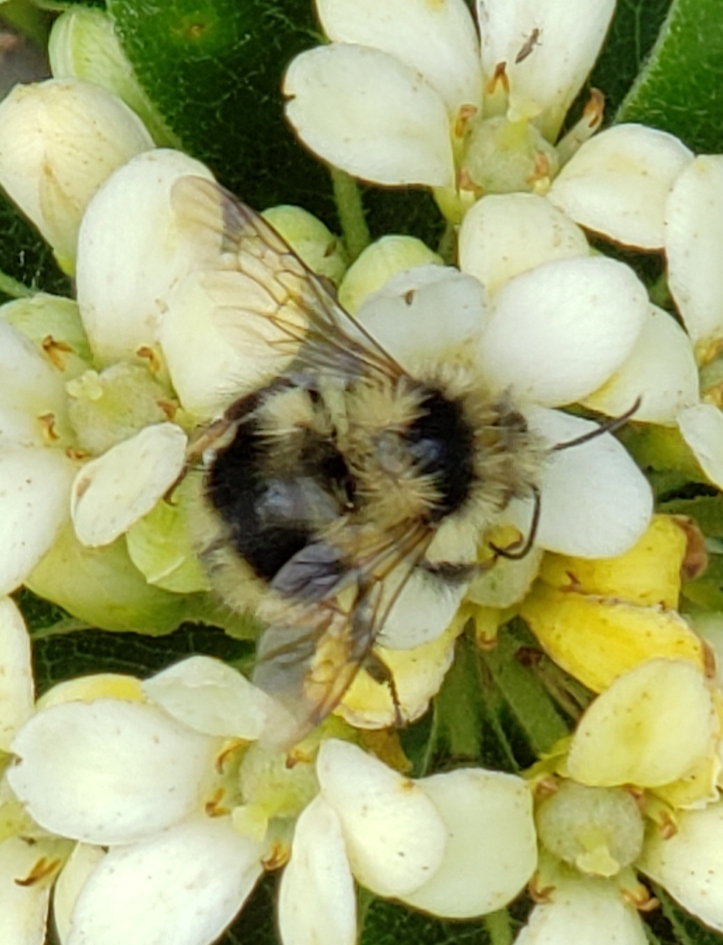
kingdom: Animalia
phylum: Arthropoda
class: Insecta
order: Hymenoptera
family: Apidae
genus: Bombus
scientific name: Bombus melanopygus
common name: Black tail bumble bee
